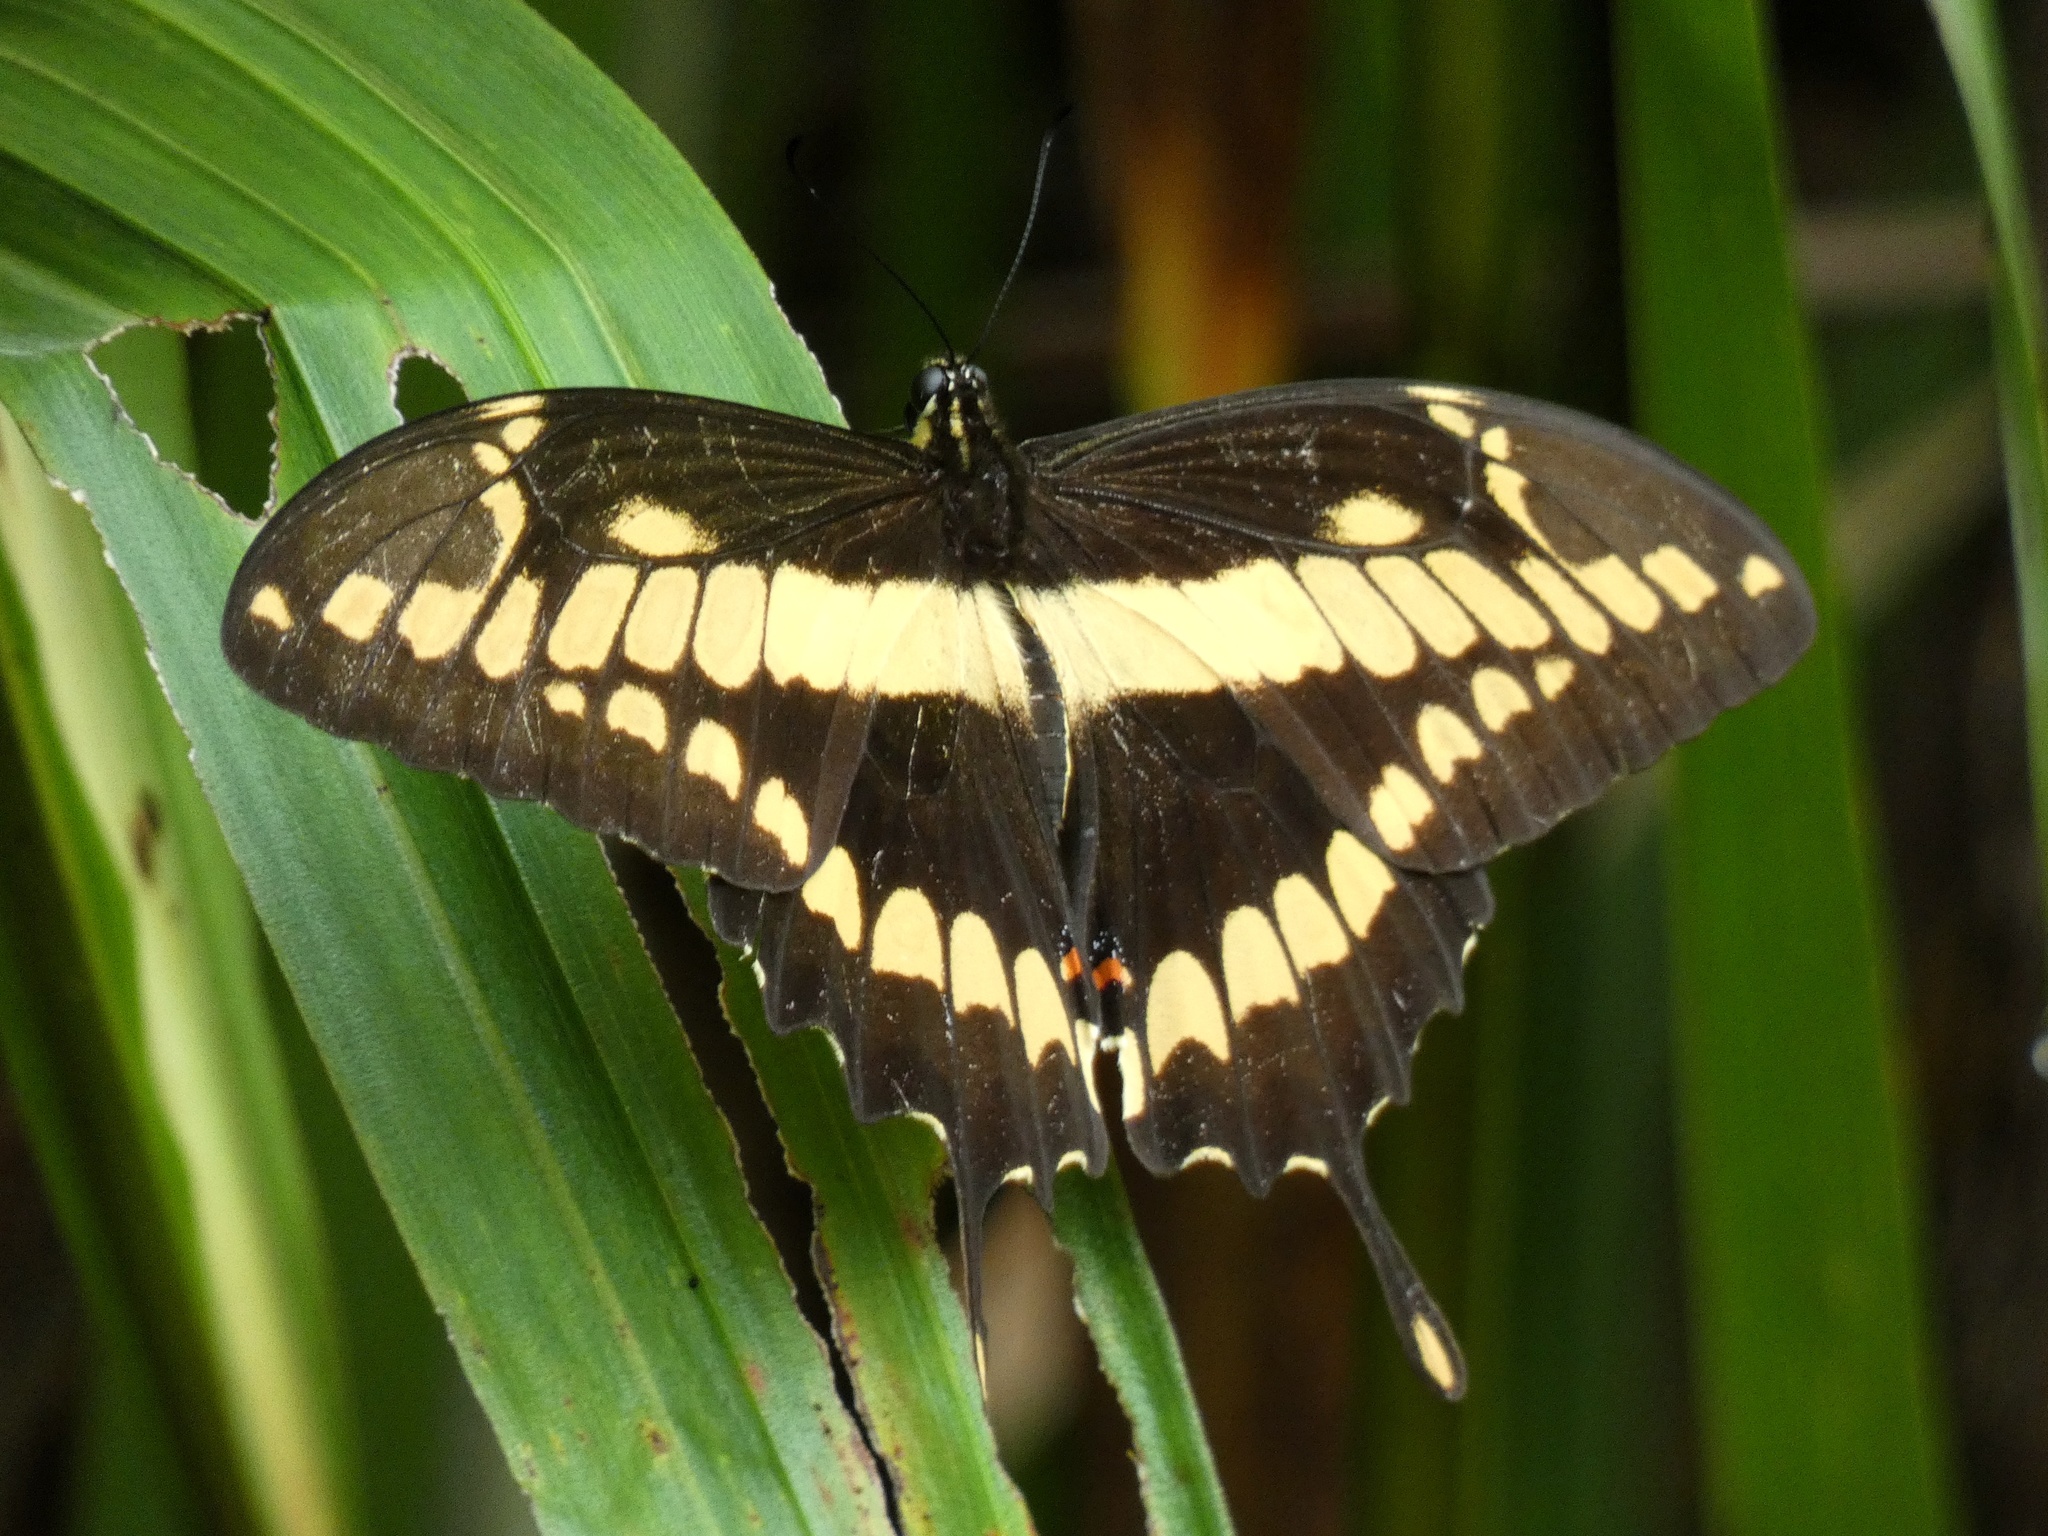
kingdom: Animalia
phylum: Arthropoda
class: Insecta
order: Lepidoptera
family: Papilionidae
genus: Papilio
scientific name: Papilio thoas
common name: King swallowtail
